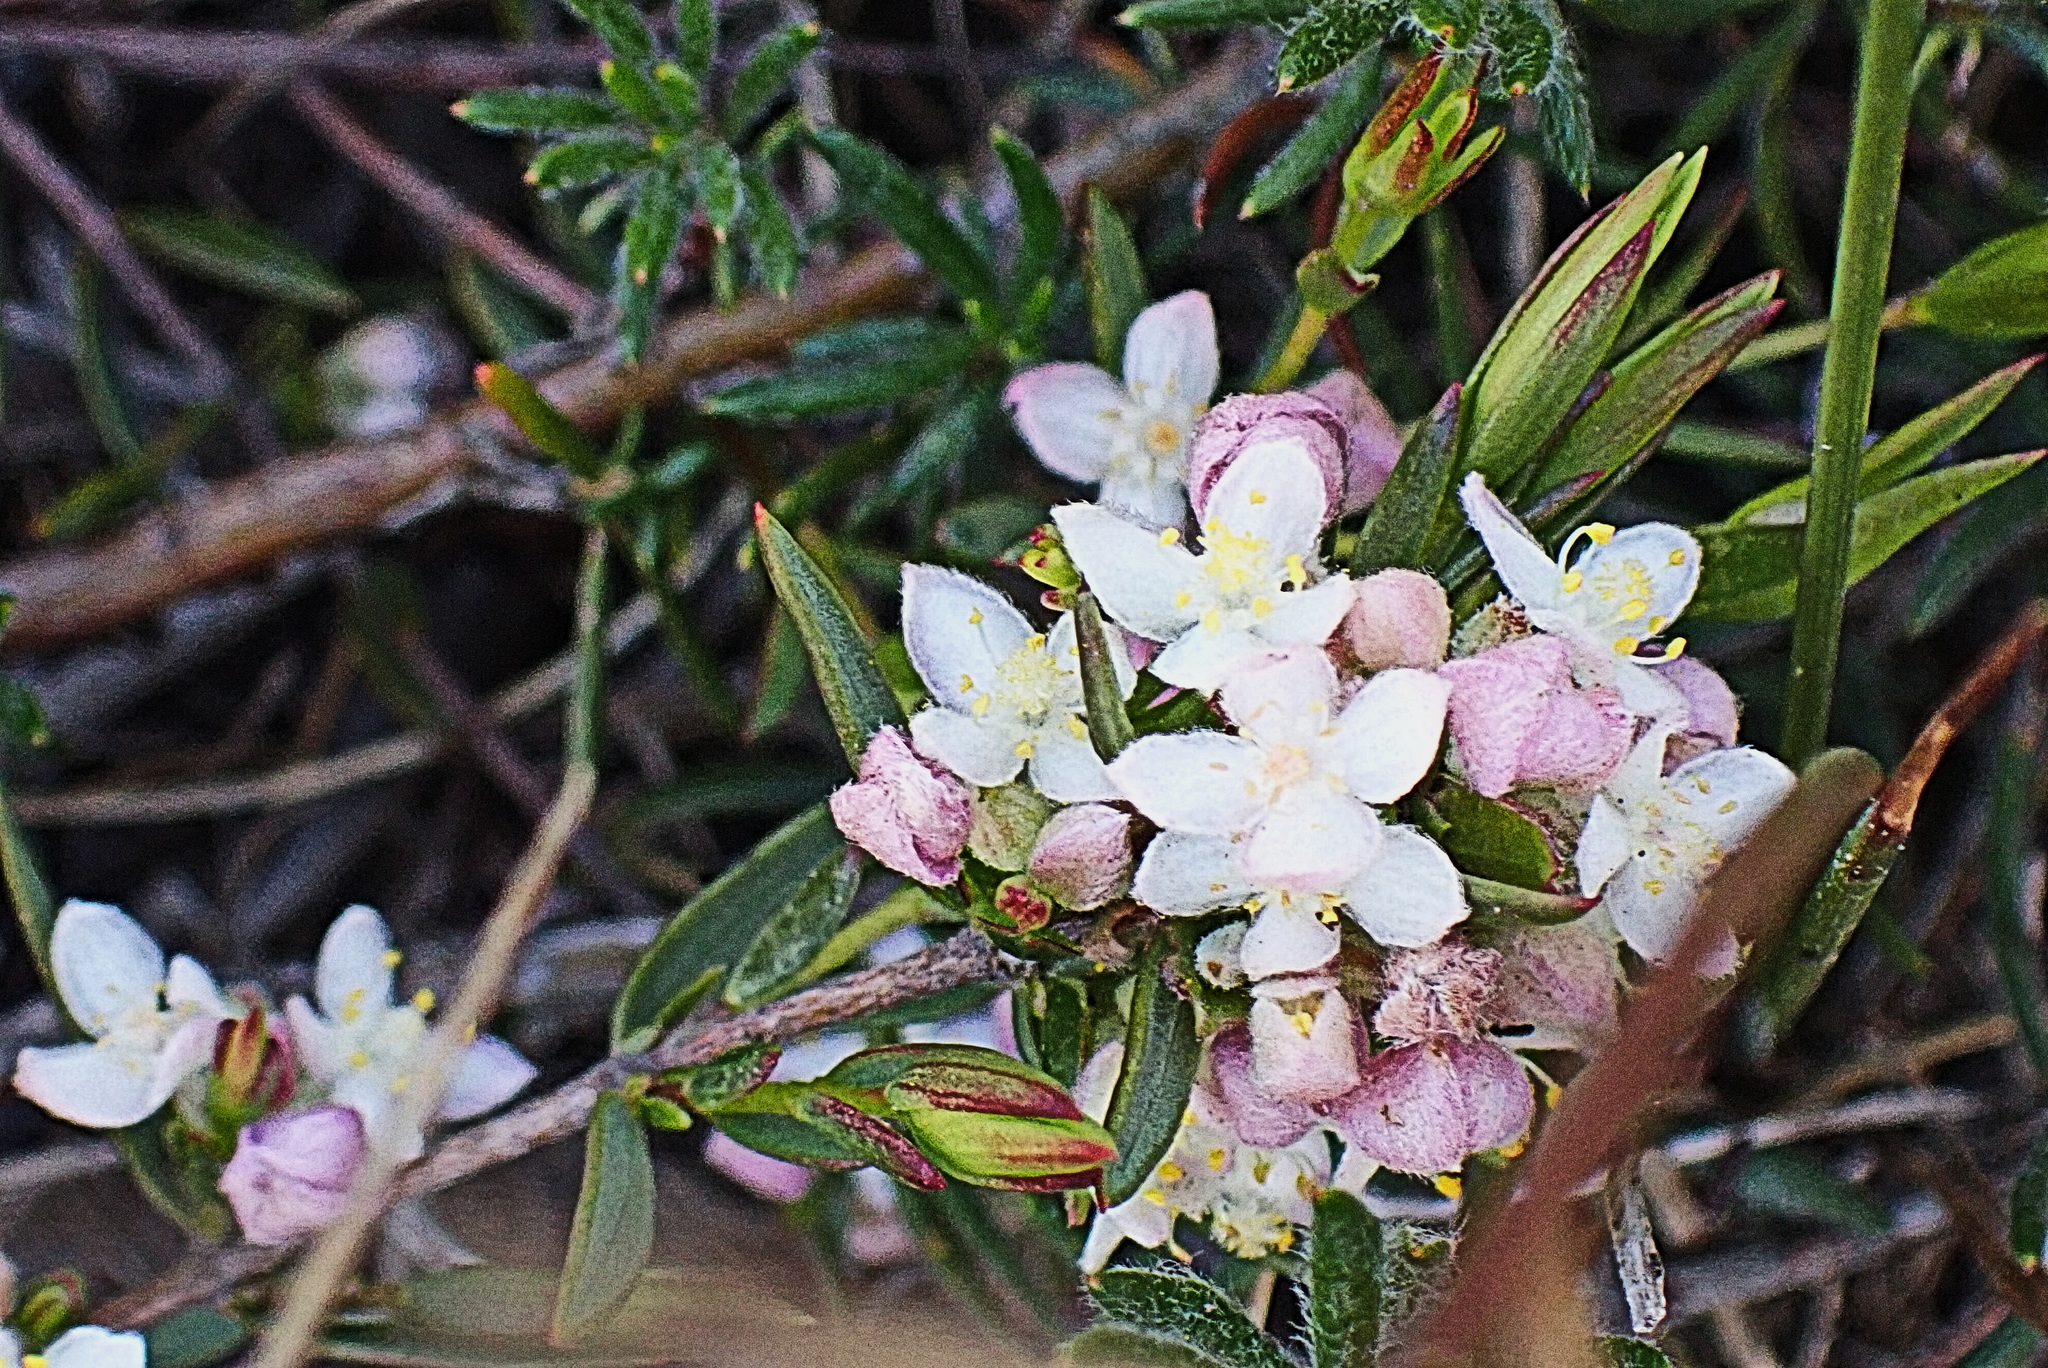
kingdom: Plantae
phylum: Tracheophyta
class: Magnoliopsida
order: Malvales
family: Thymelaeaceae
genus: Lachnaea
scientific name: Lachnaea burchellii
